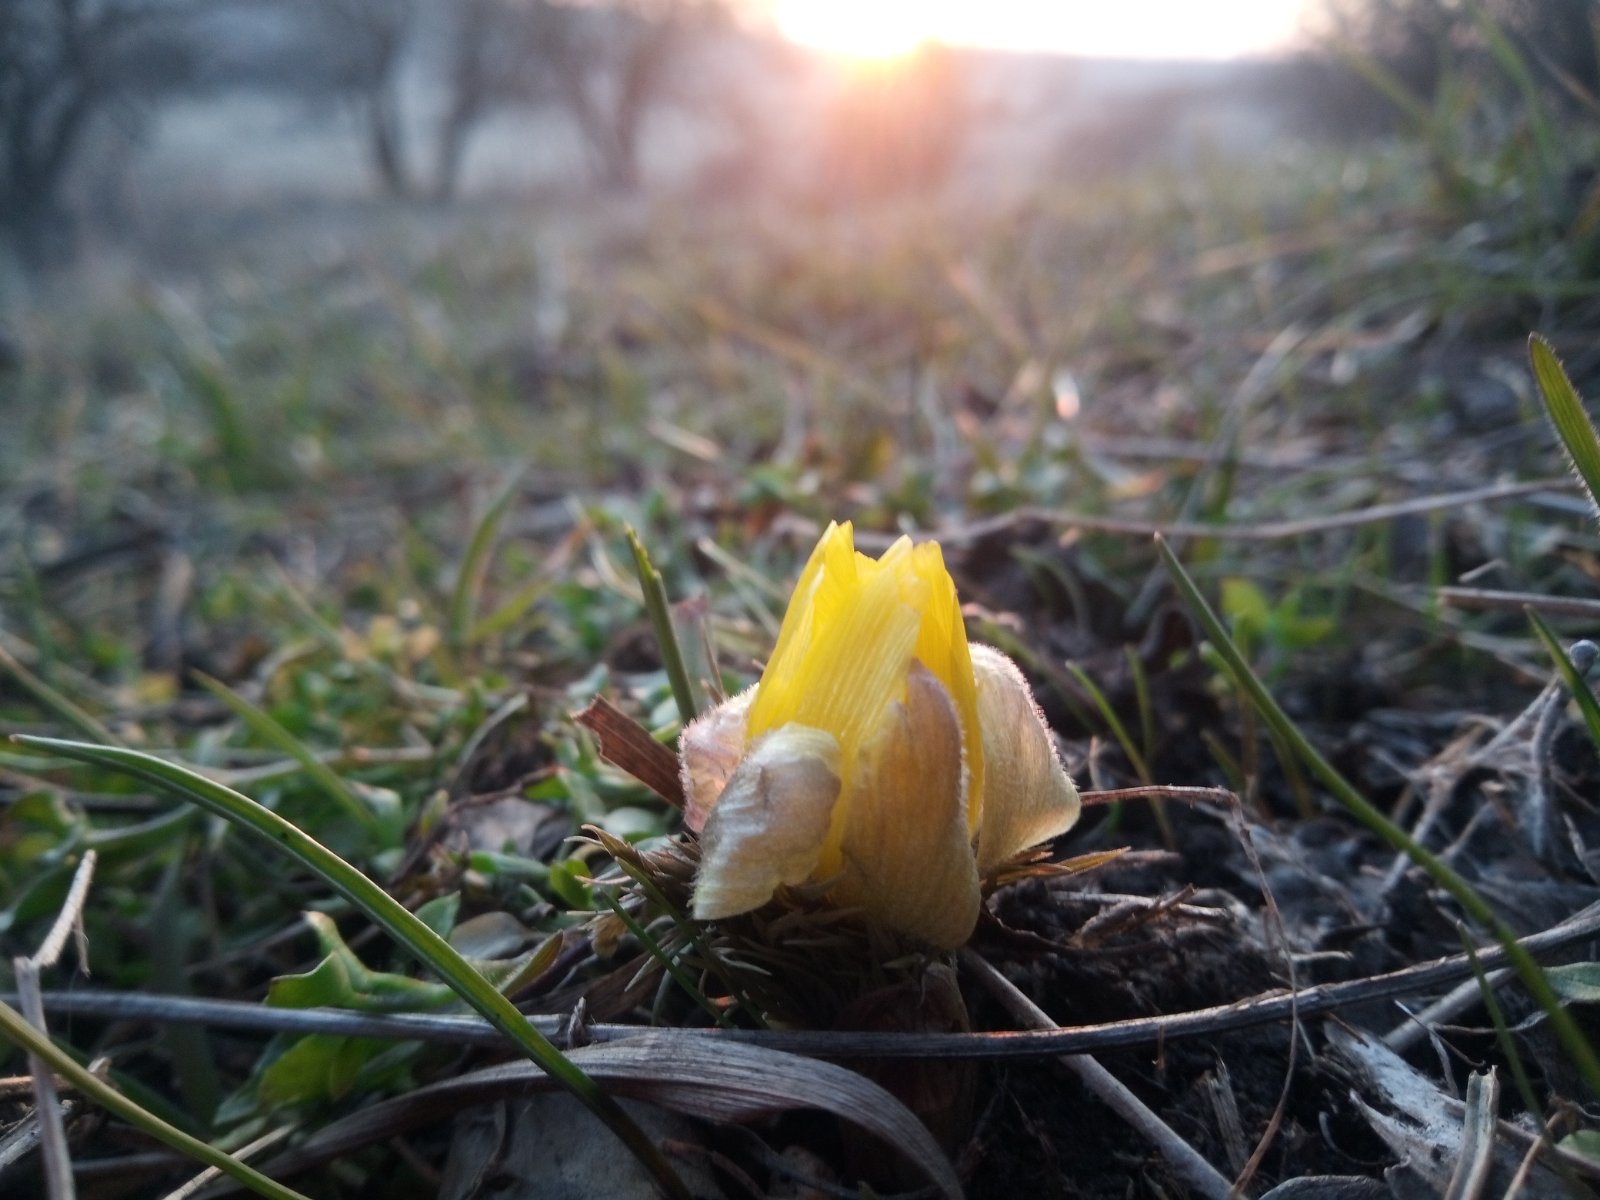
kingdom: Plantae
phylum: Tracheophyta
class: Magnoliopsida
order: Ranunculales
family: Ranunculaceae
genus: Adonis
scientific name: Adonis volgensis
